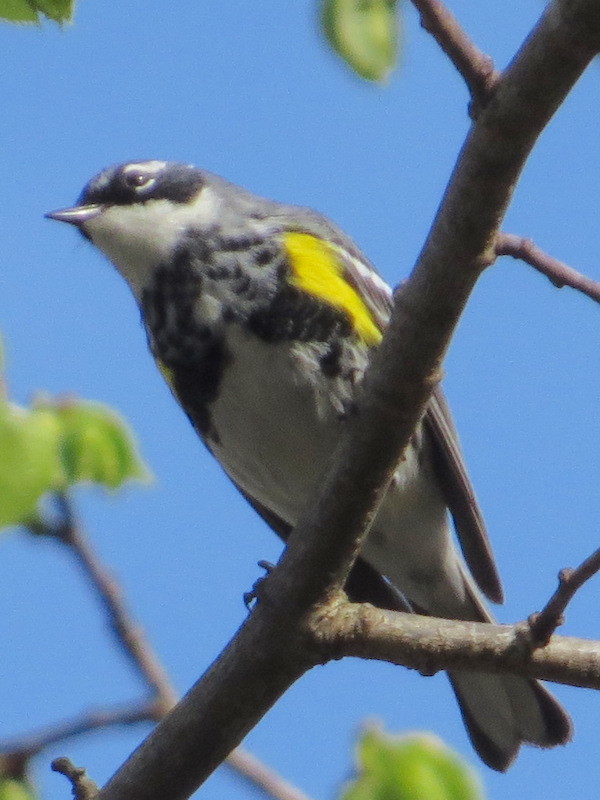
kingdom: Animalia
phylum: Chordata
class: Aves
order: Passeriformes
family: Parulidae
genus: Setophaga
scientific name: Setophaga coronata
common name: Myrtle warbler
